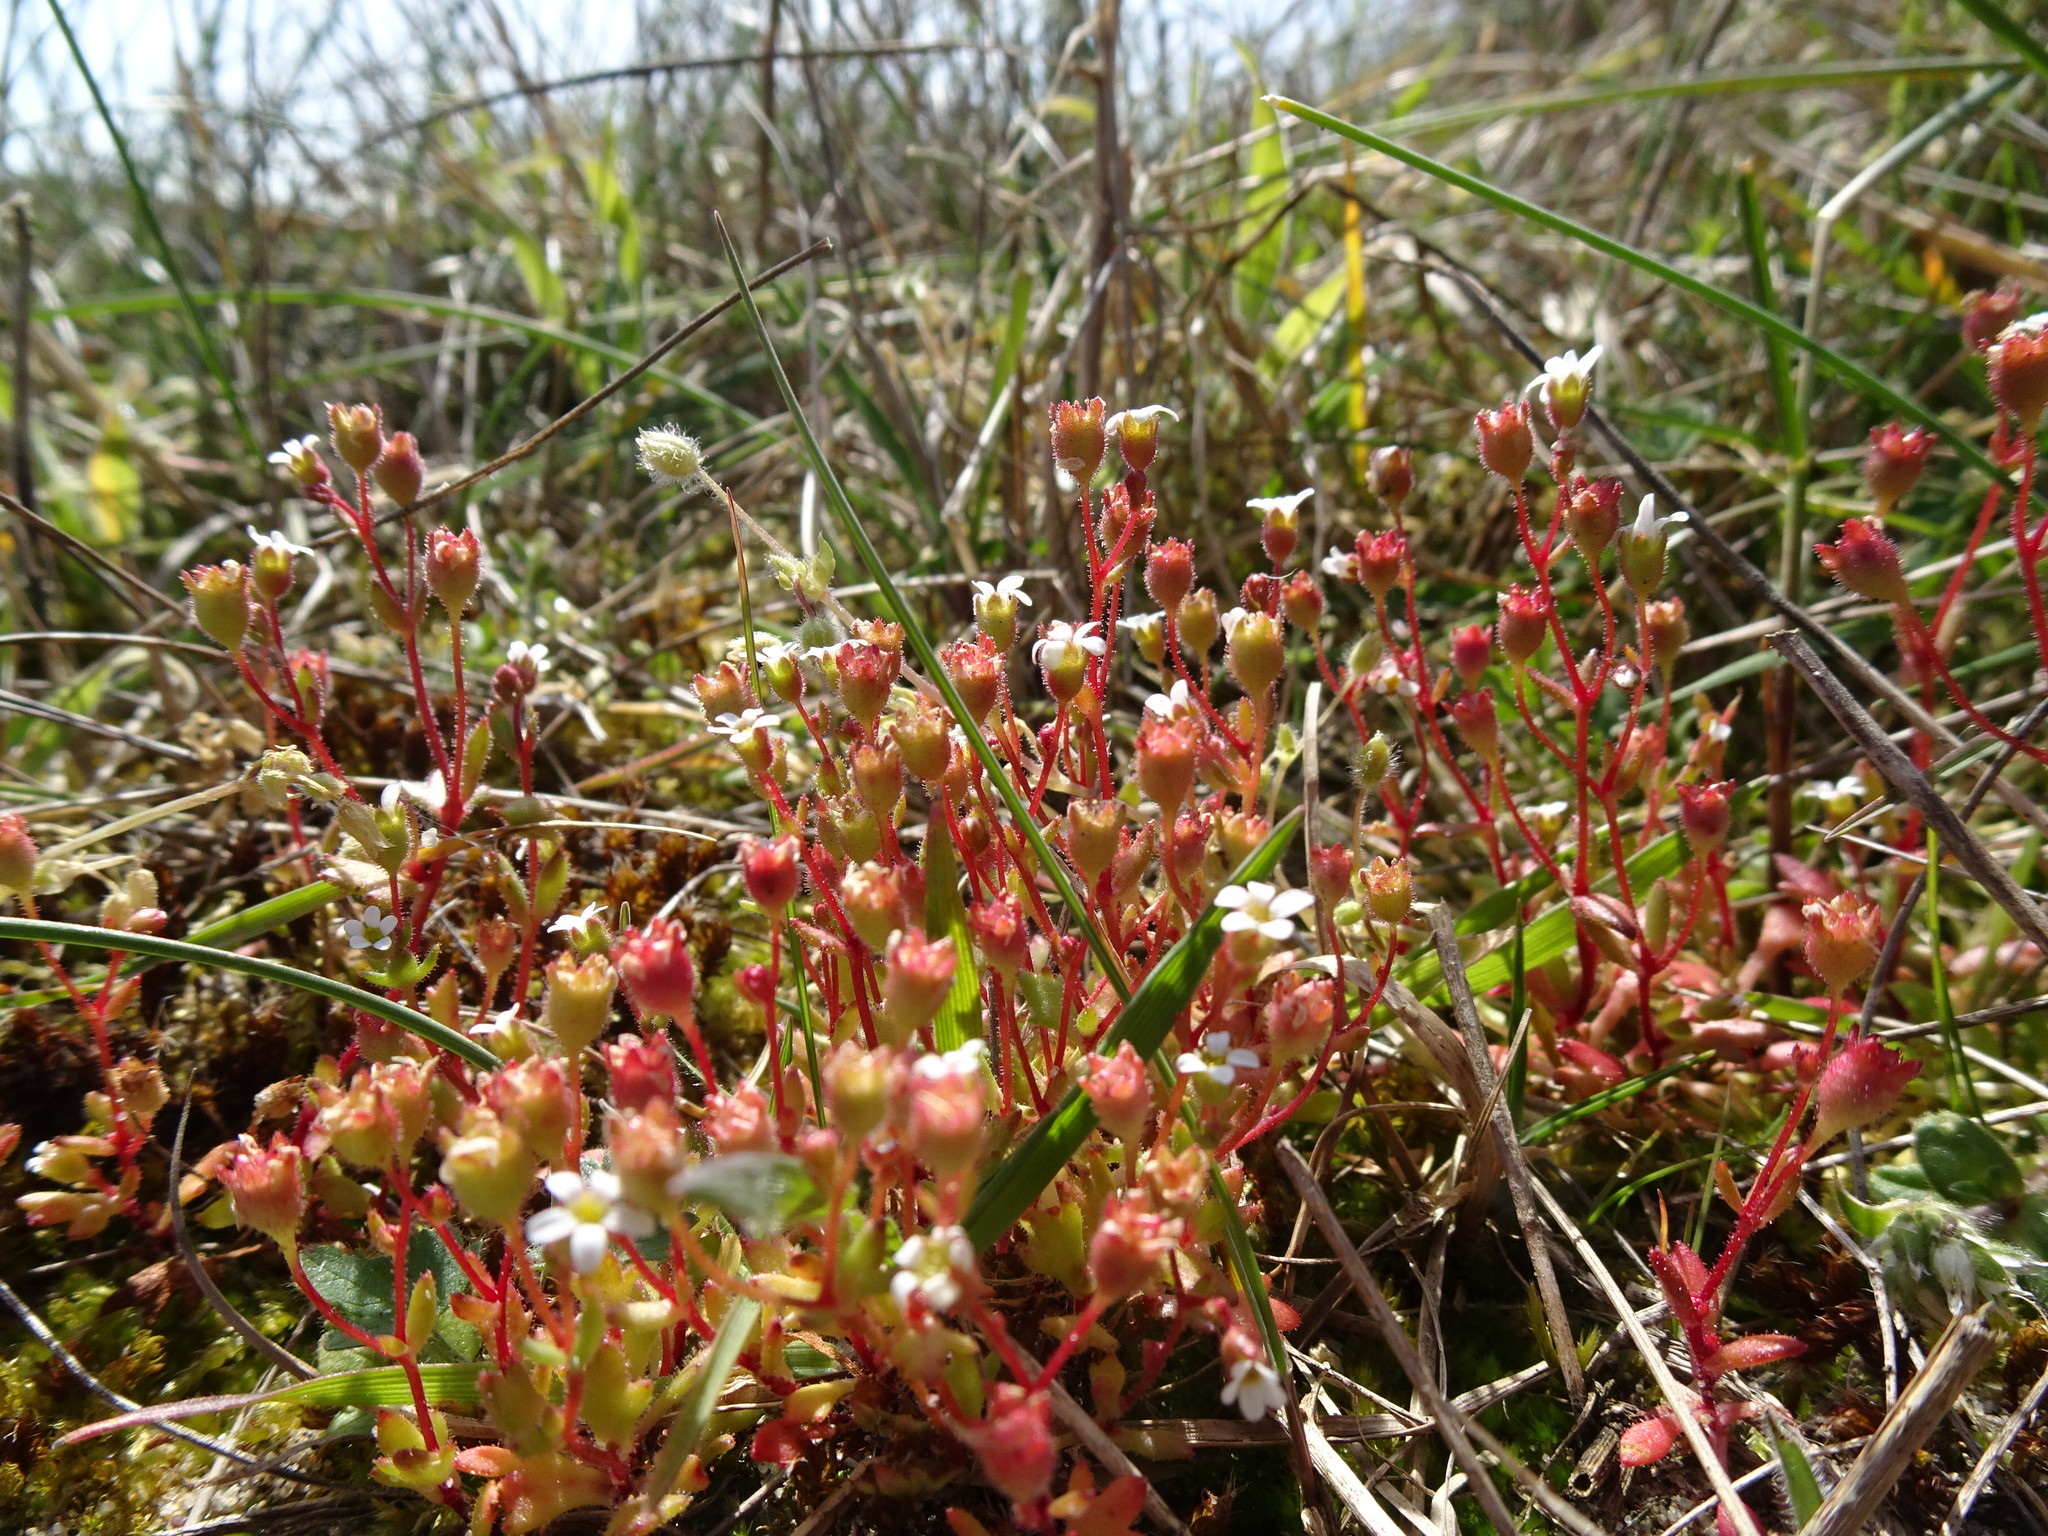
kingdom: Plantae
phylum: Tracheophyta
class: Magnoliopsida
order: Saxifragales
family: Saxifragaceae
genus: Saxifraga
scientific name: Saxifraga tridactylites
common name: Rue-leaved saxifrage
